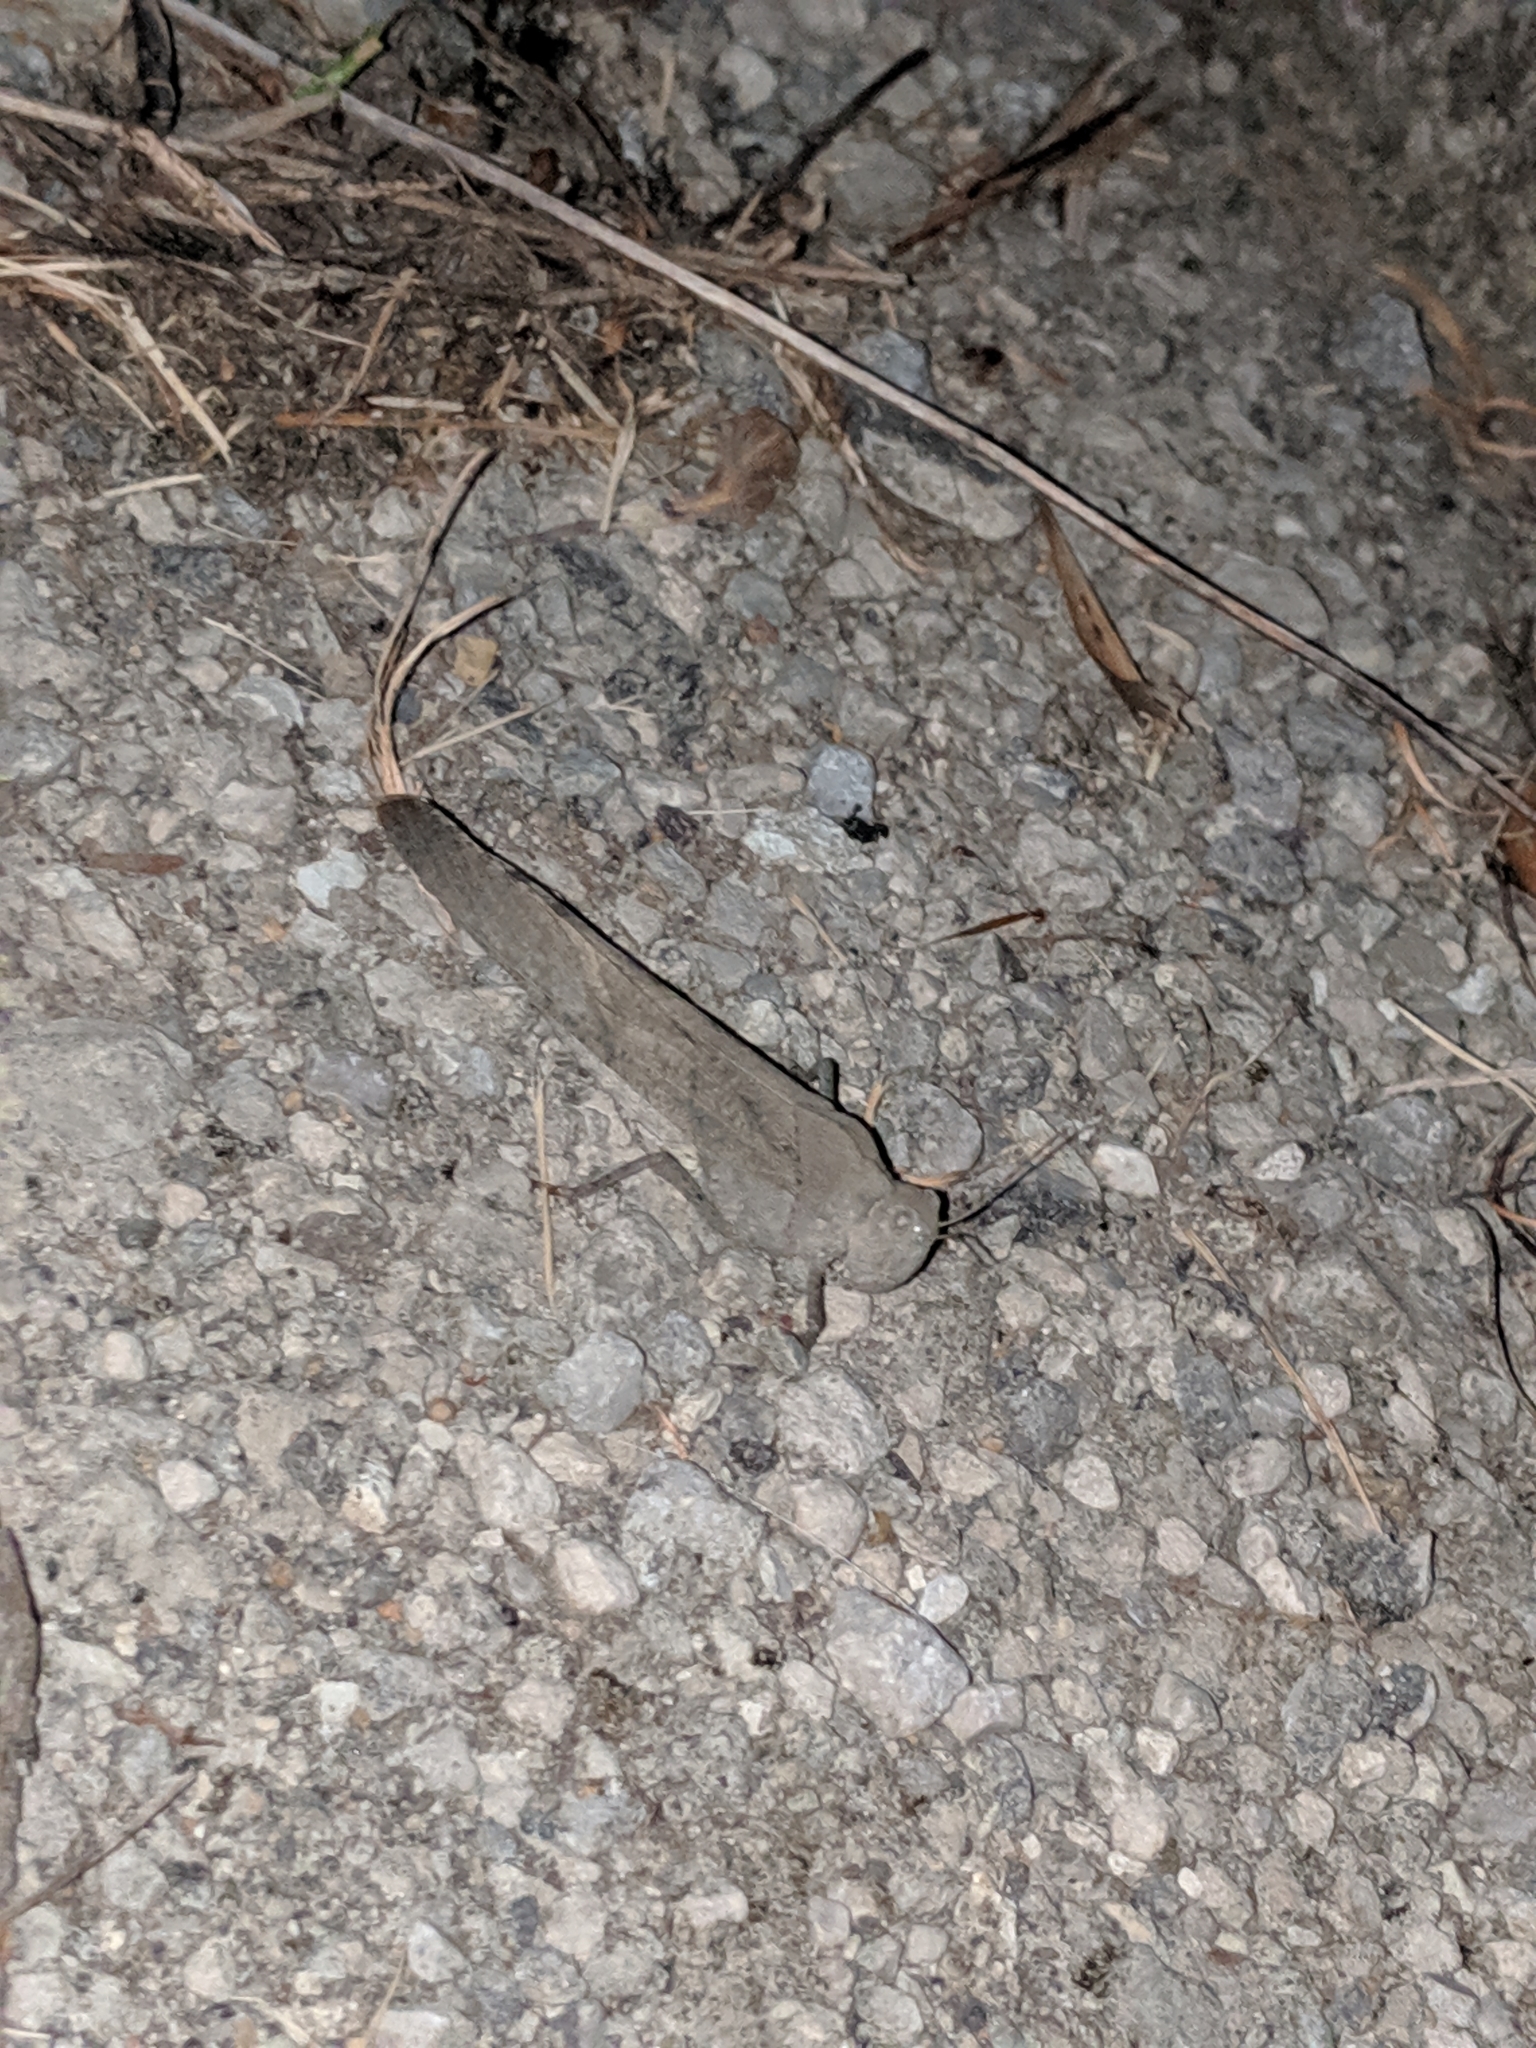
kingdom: Animalia
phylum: Arthropoda
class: Insecta
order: Orthoptera
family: Acrididae
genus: Dissosteira
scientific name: Dissosteira carolina
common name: Carolina grasshopper
